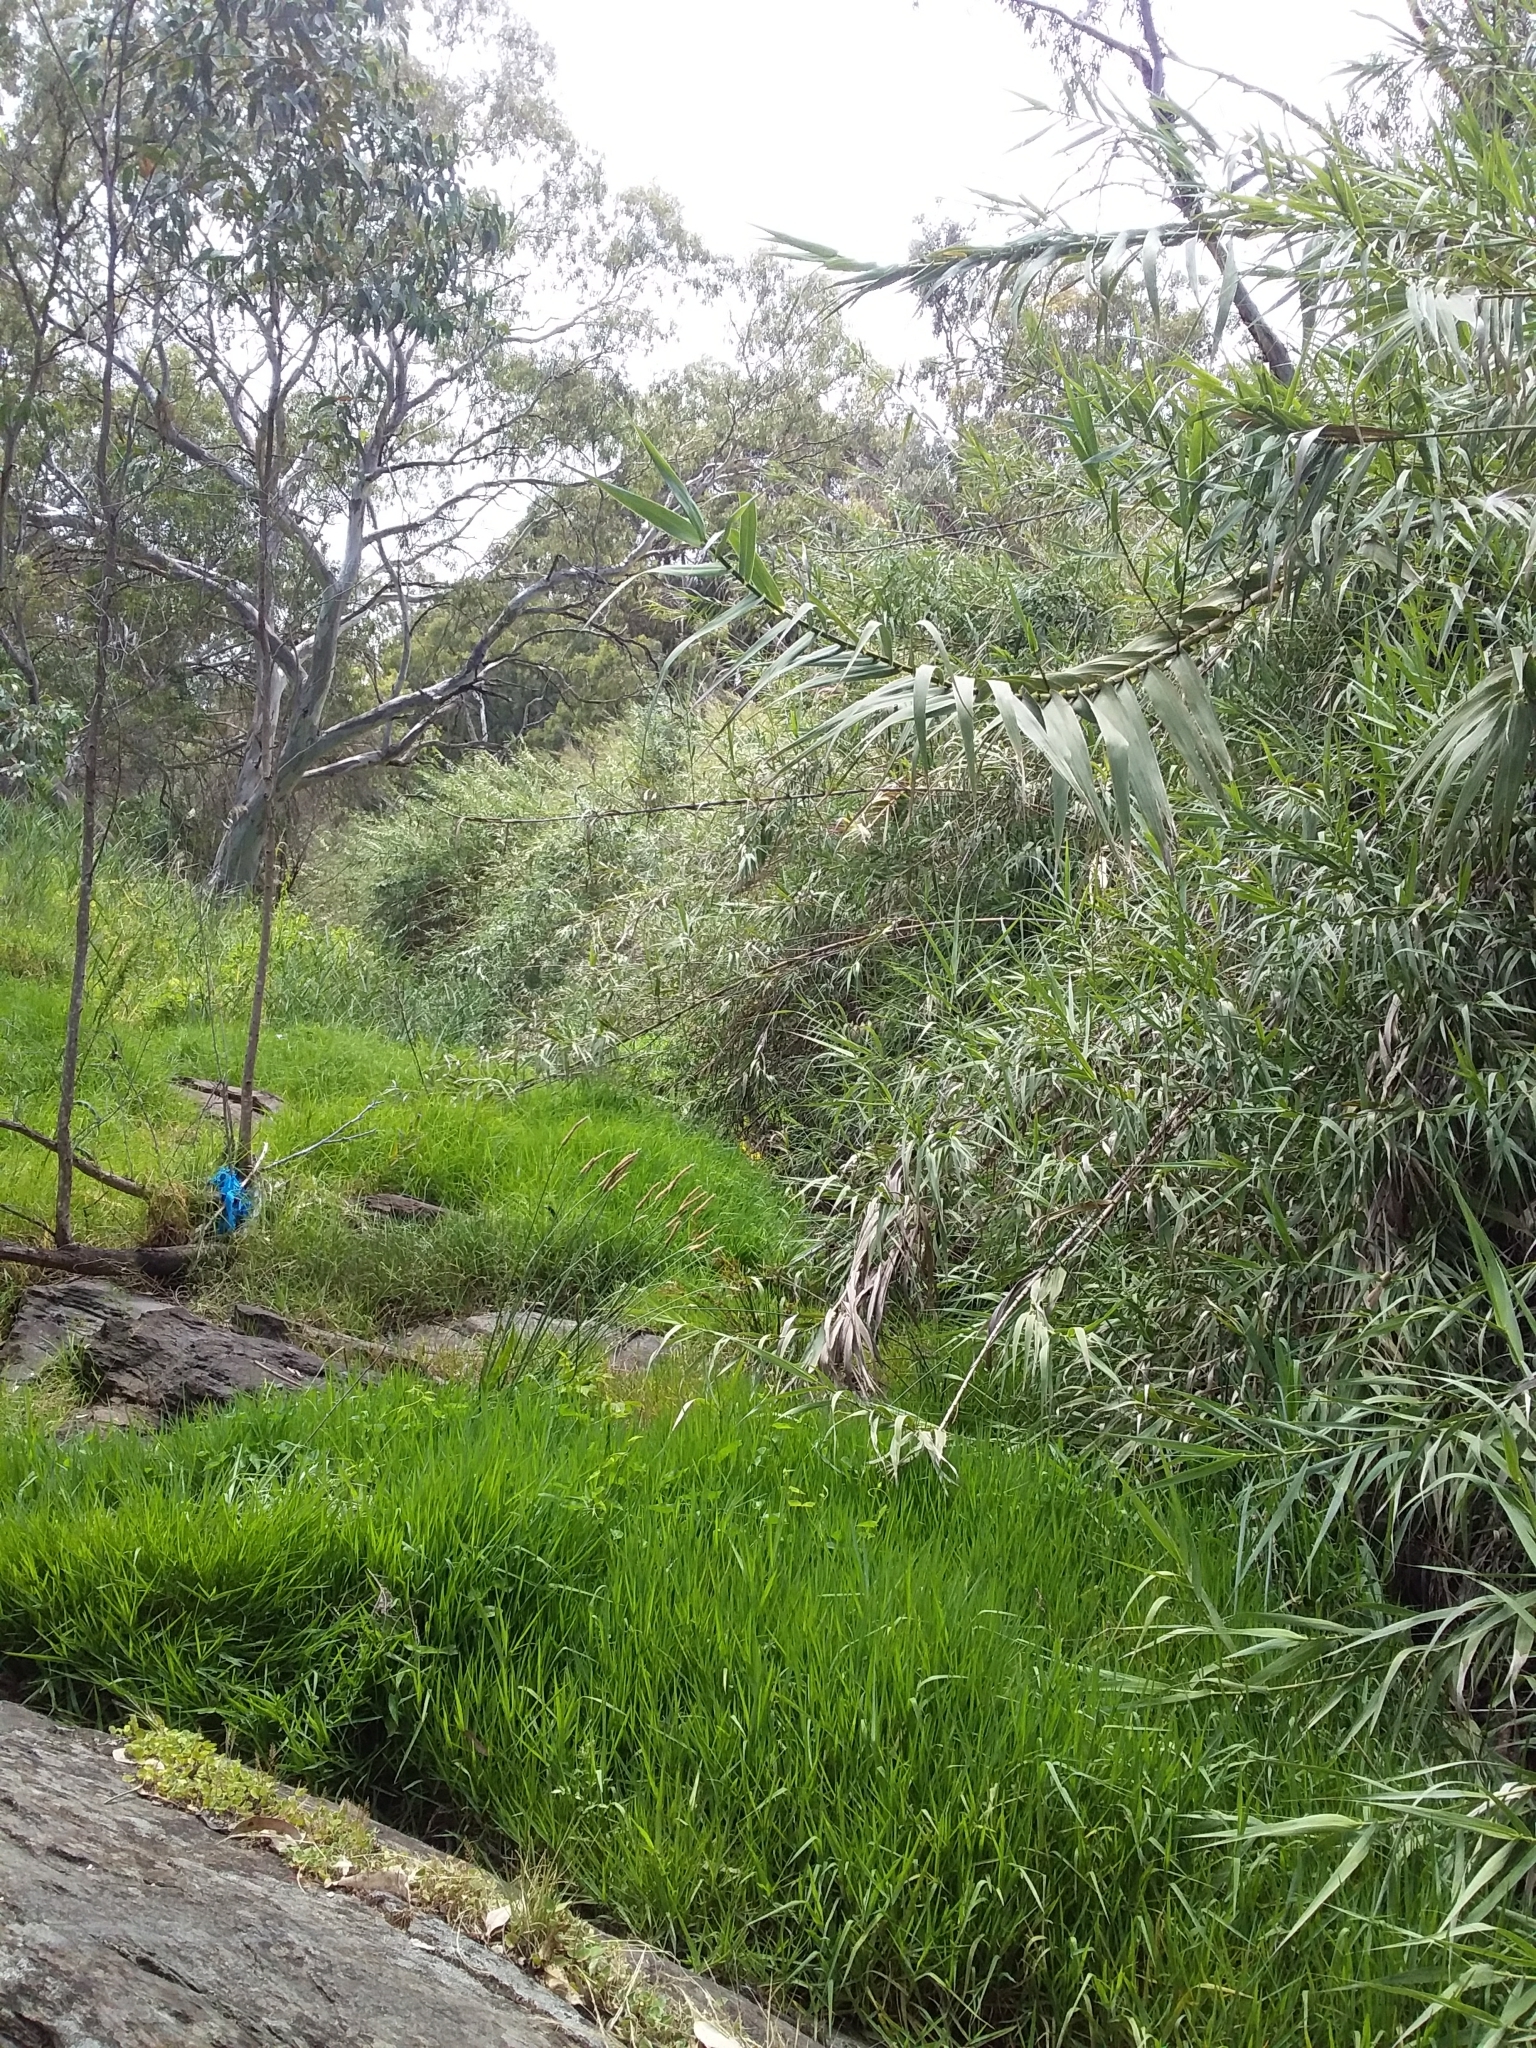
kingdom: Plantae
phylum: Tracheophyta
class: Liliopsida
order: Poales
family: Poaceae
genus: Arundo
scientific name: Arundo donax
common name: Giant reed
